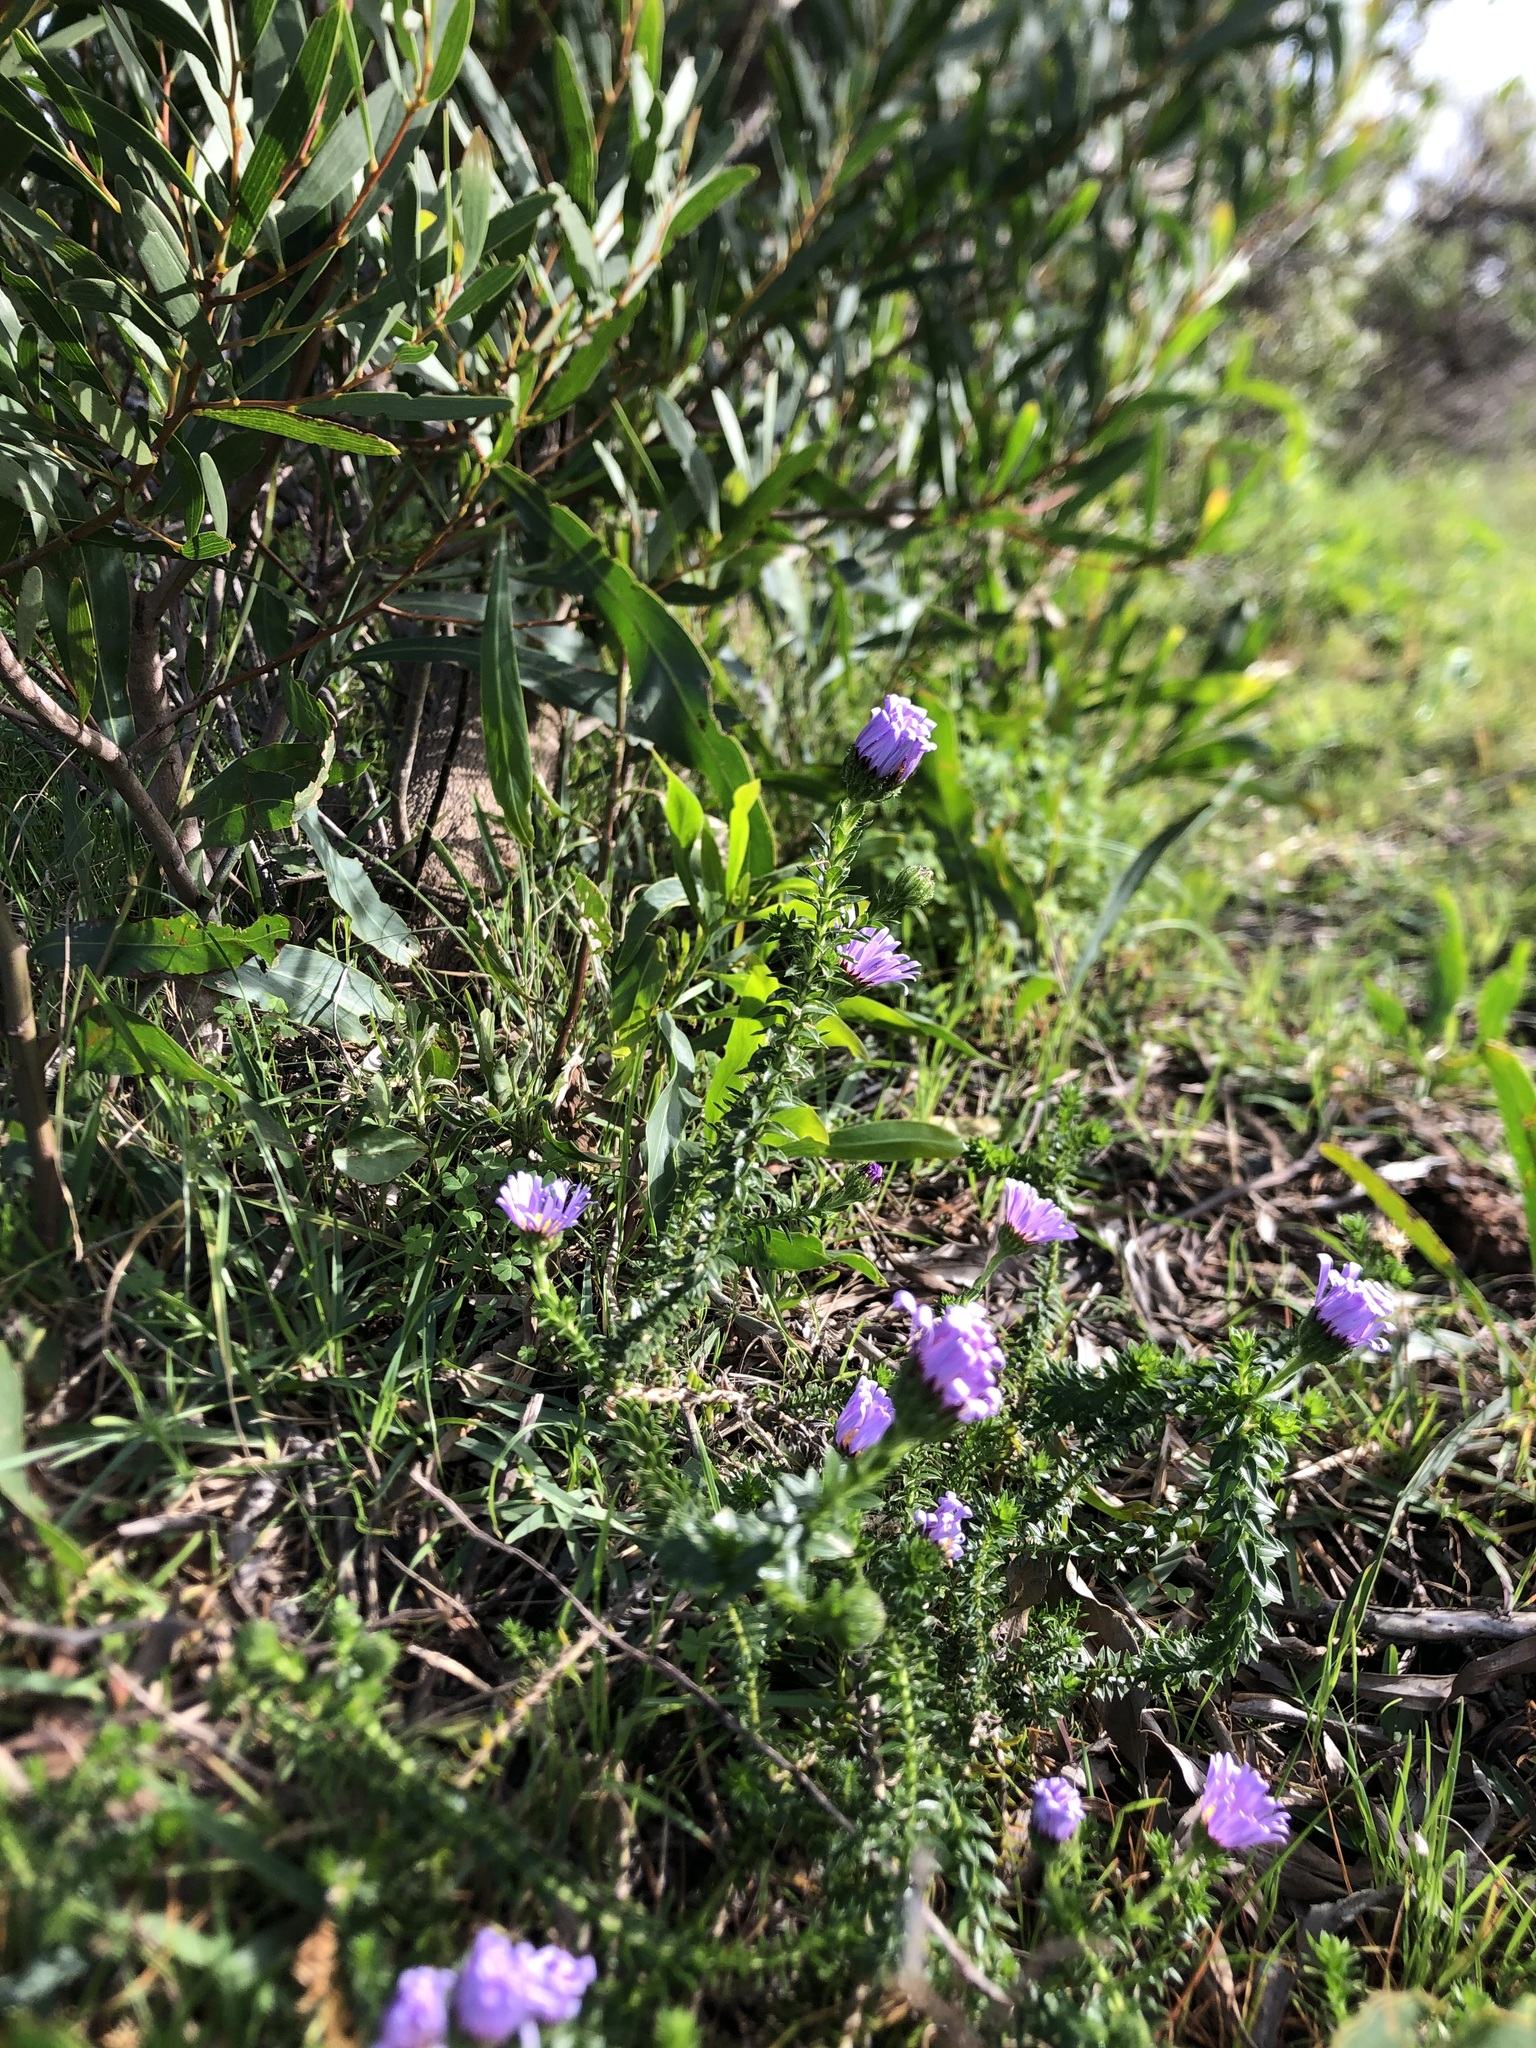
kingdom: Plantae
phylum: Tracheophyta
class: Magnoliopsida
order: Asterales
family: Asteraceae
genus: Felicia
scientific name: Felicia echinata
